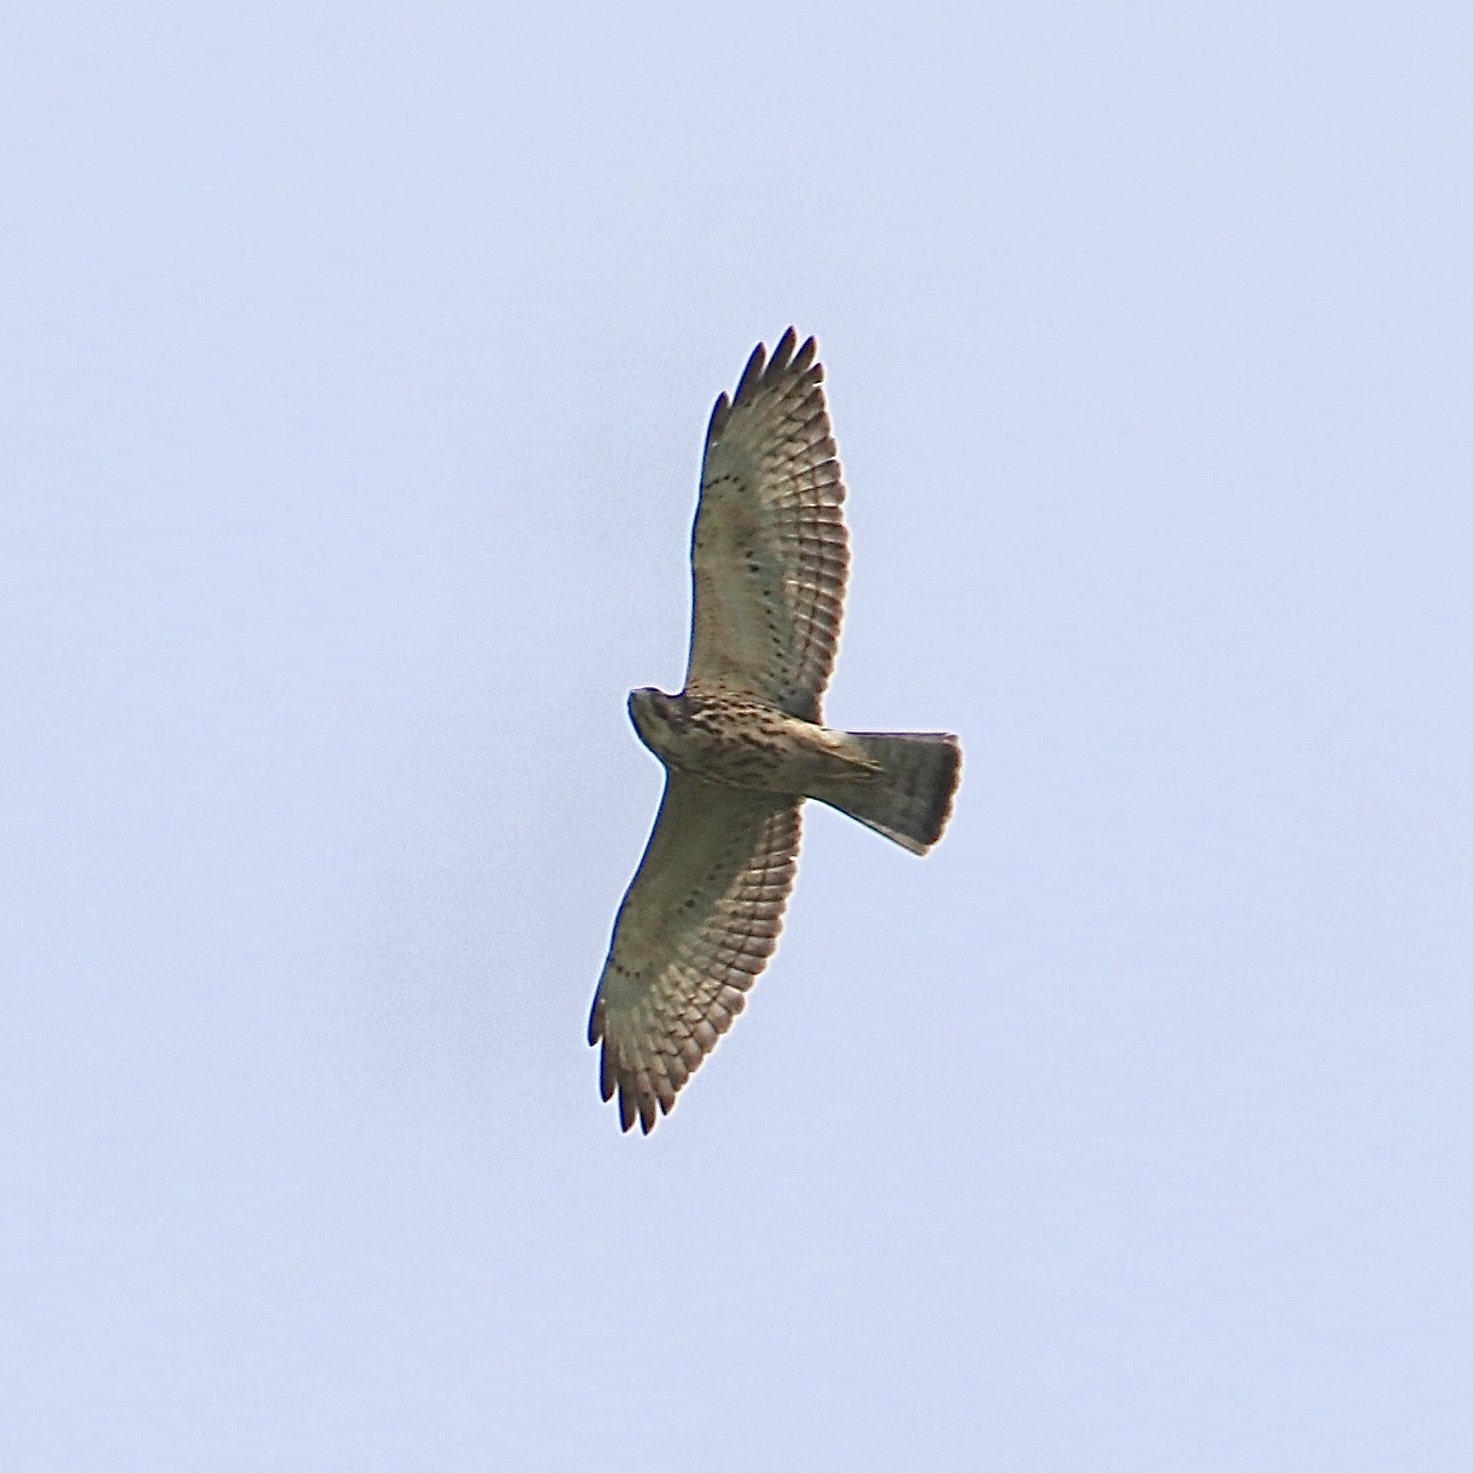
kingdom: Animalia
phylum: Chordata
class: Aves
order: Accipitriformes
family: Accipitridae
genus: Buteo
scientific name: Buteo platypterus
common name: Broad-winged hawk
